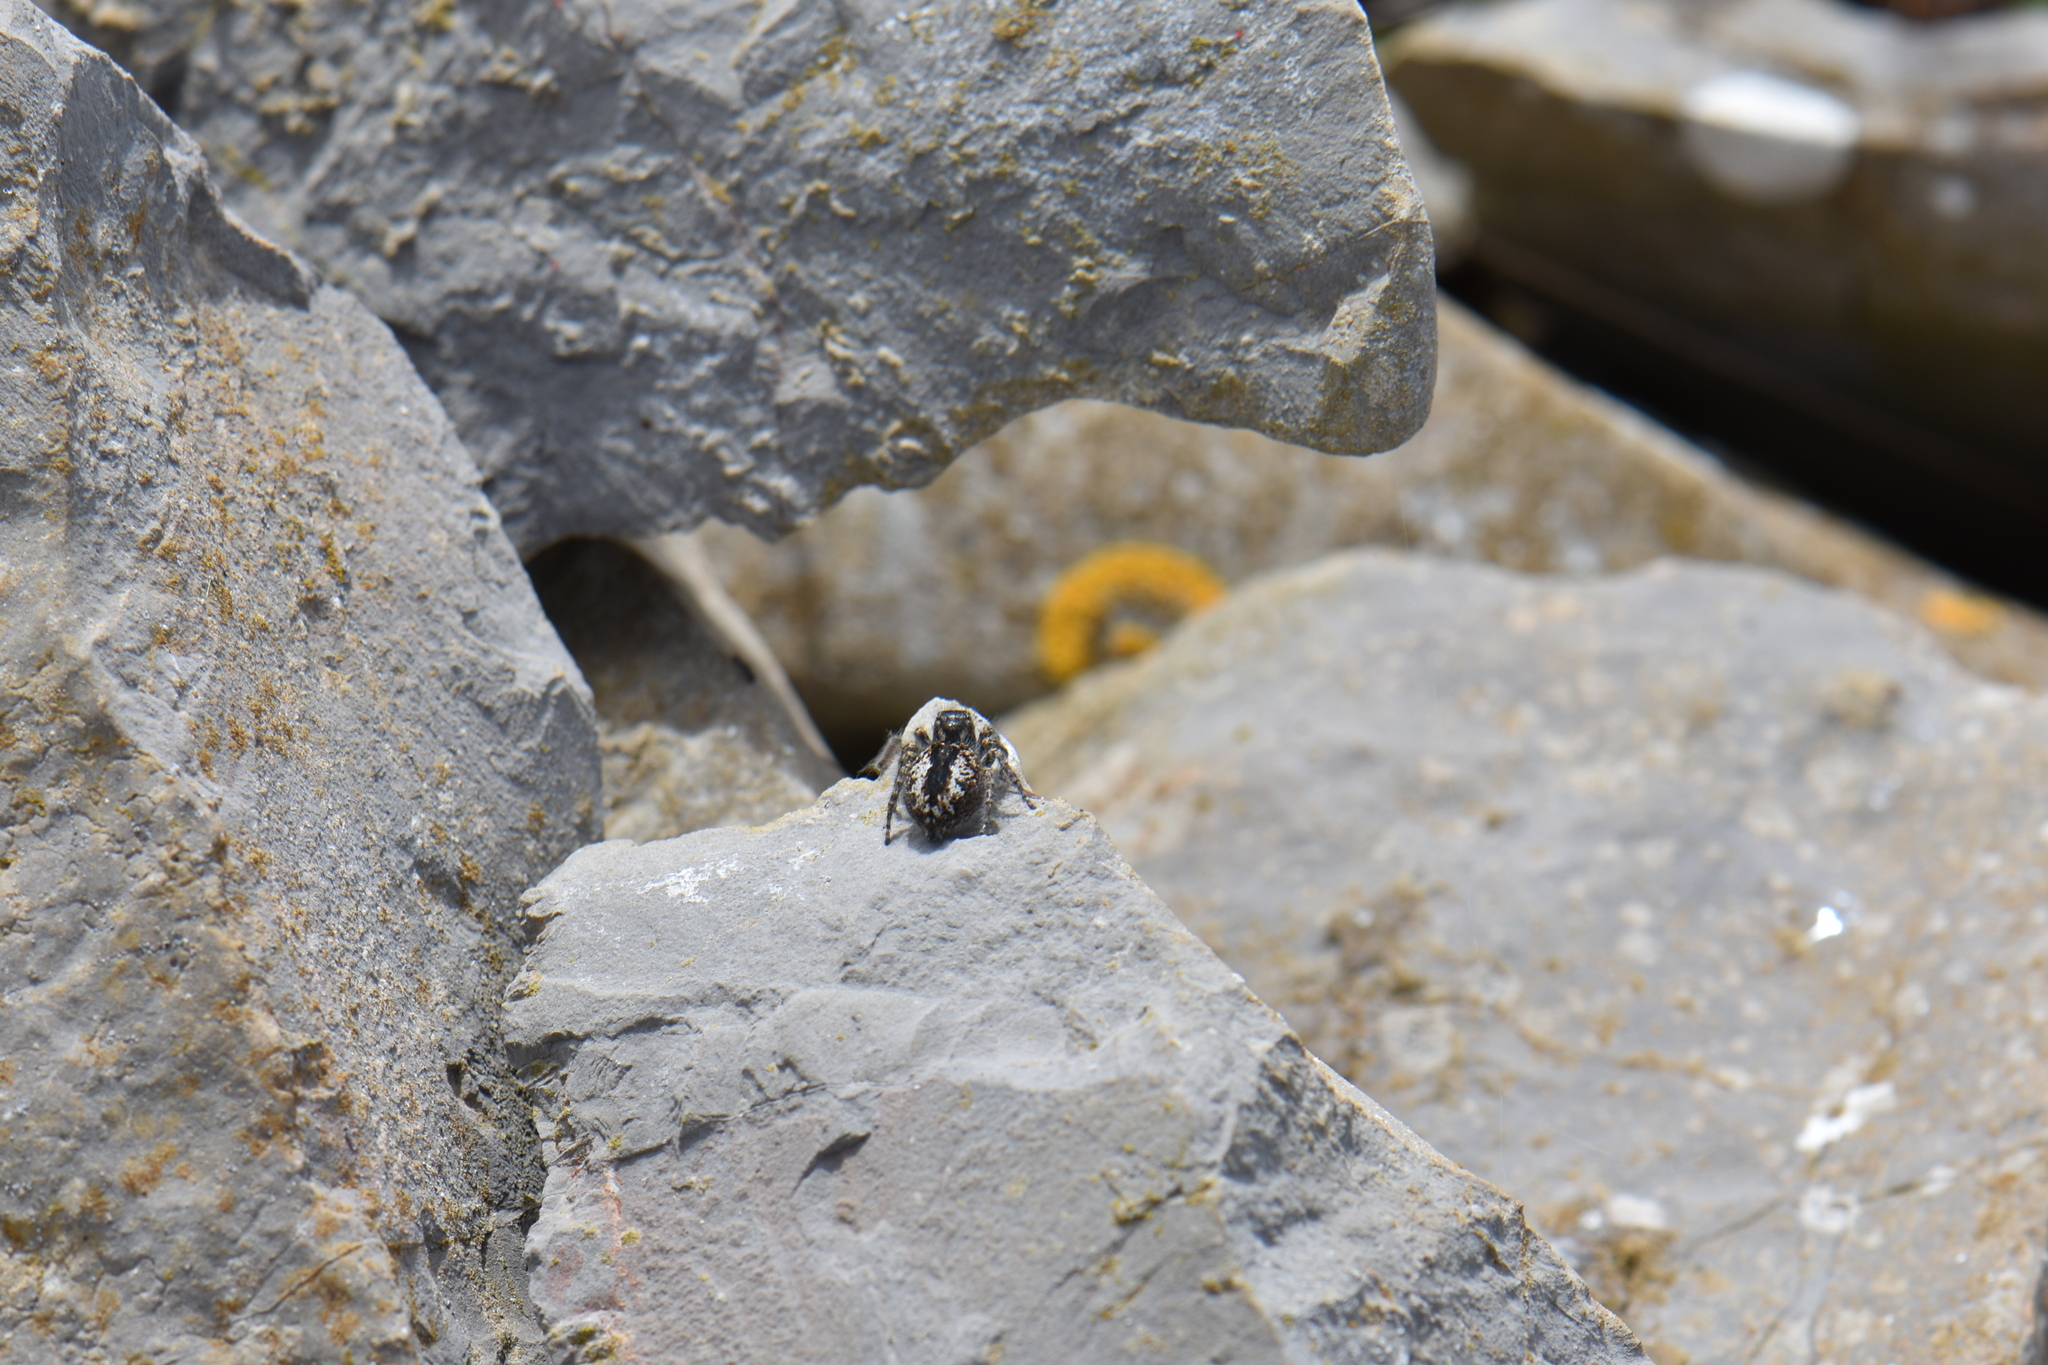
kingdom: Animalia
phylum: Arthropoda
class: Arachnida
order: Araneae
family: Salticidae
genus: Philaeus
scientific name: Philaeus chrysops
